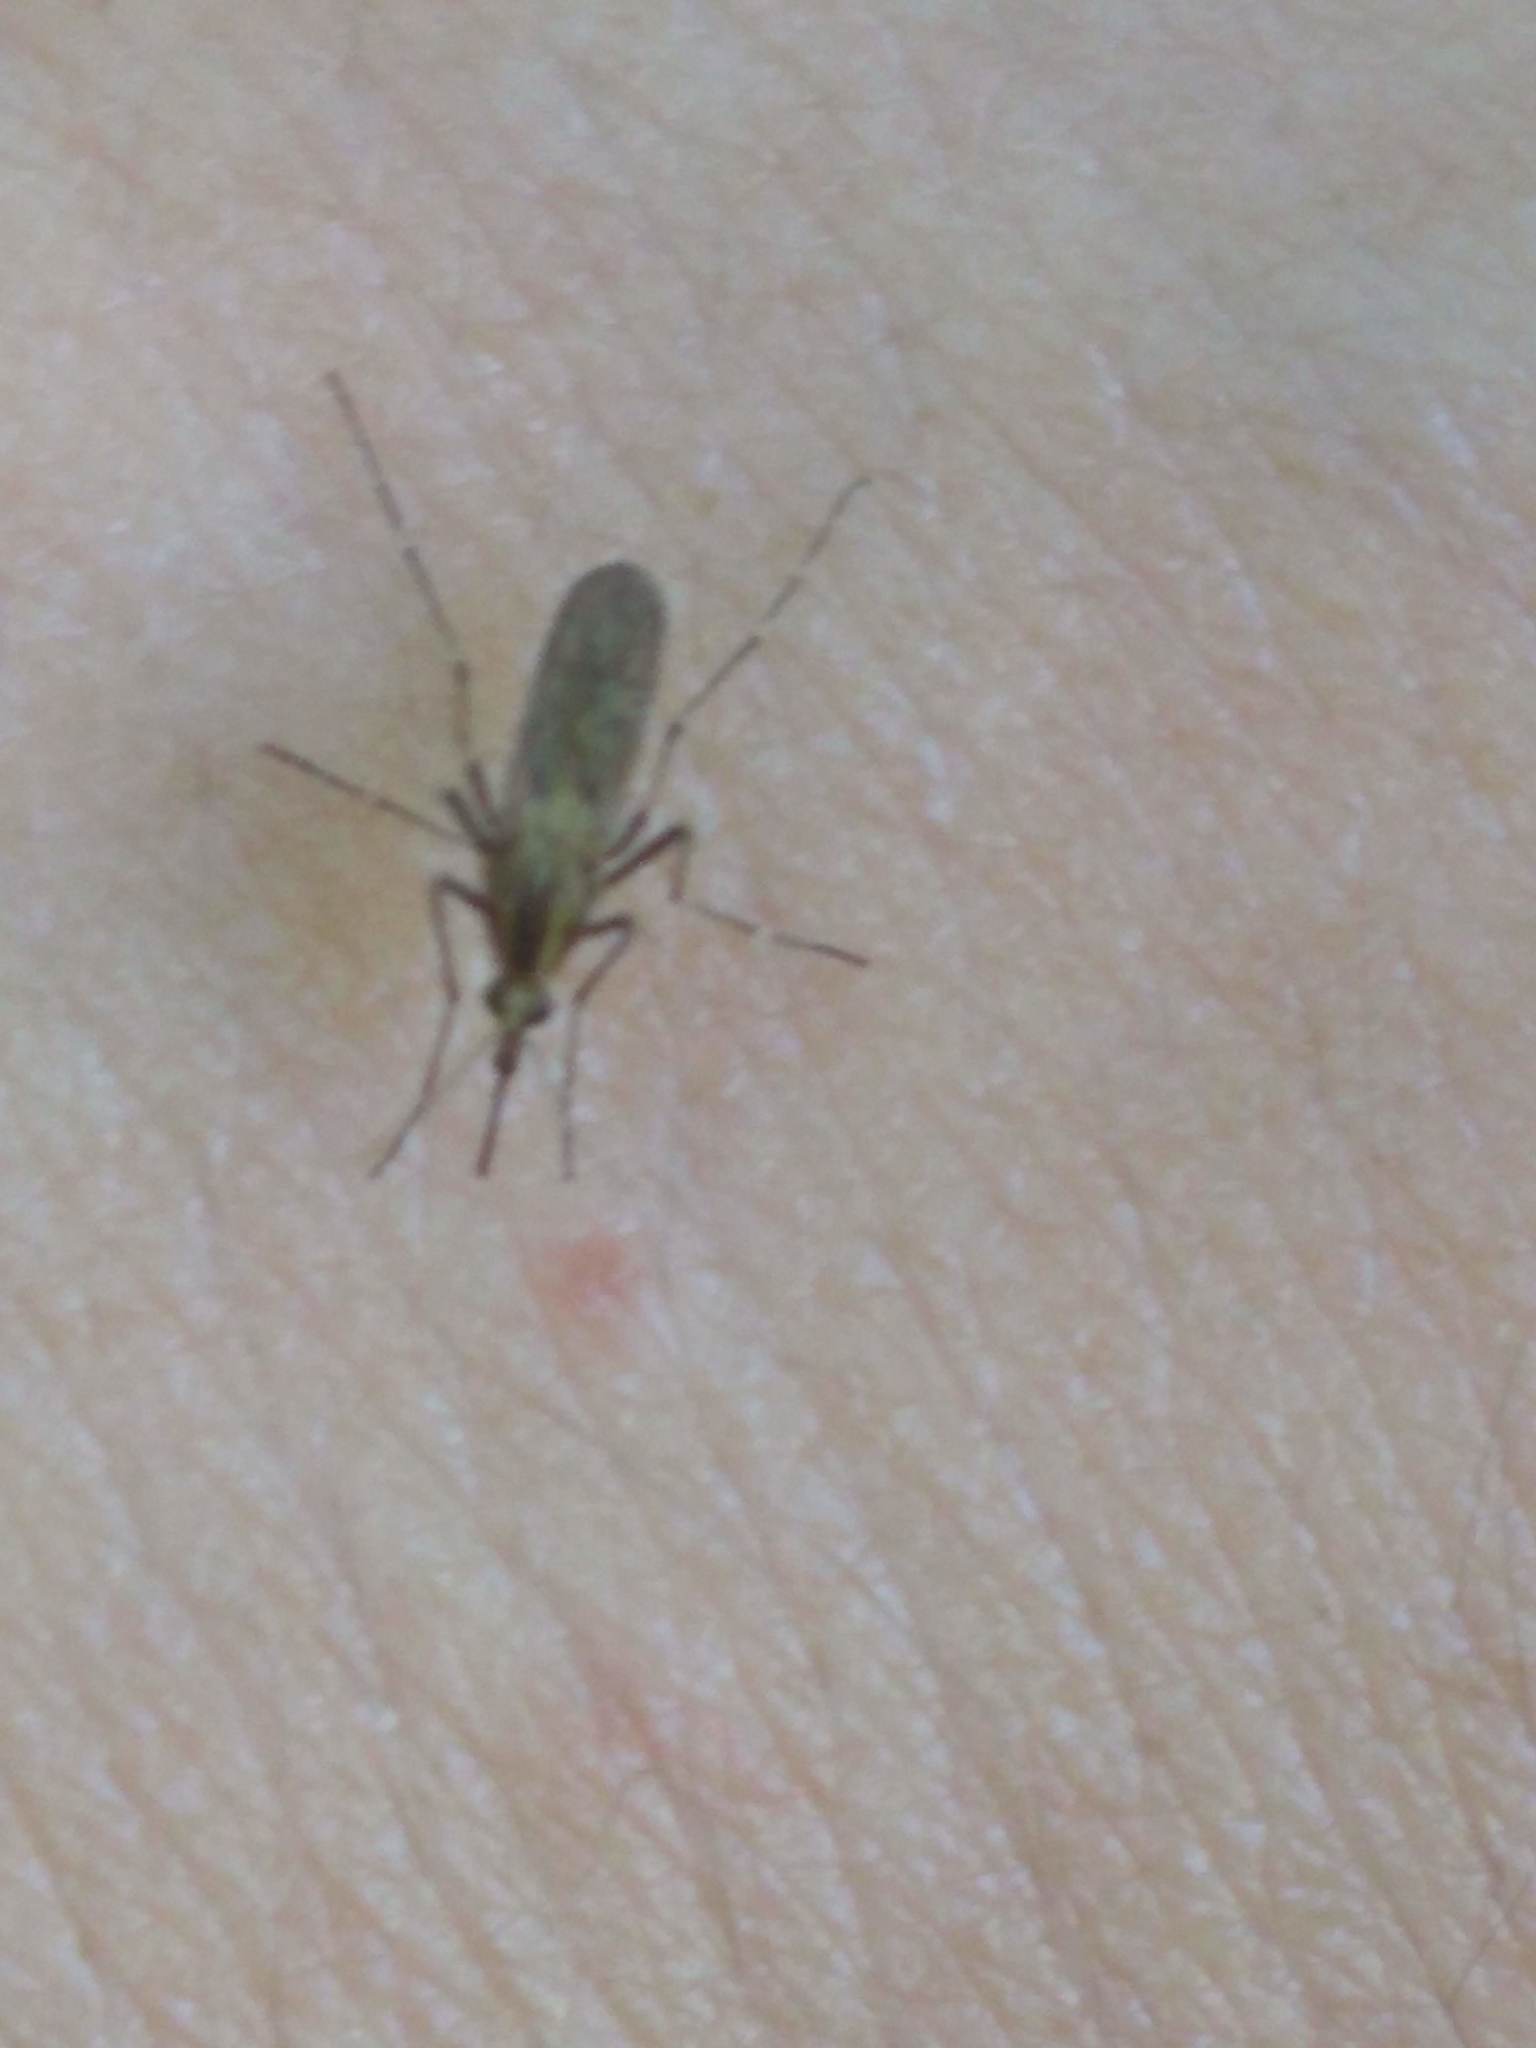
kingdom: Animalia
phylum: Arthropoda
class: Insecta
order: Diptera
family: Culicidae
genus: Aedes
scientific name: Aedes albifasciatus
